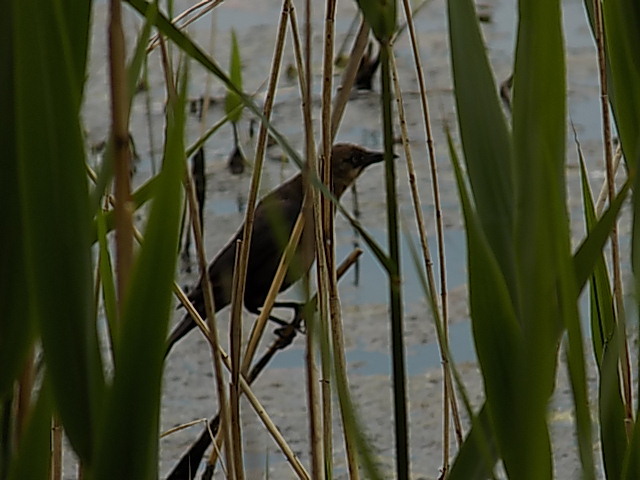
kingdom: Animalia
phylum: Chordata
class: Aves
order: Passeriformes
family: Icteridae
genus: Quiscalus
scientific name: Quiscalus major
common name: Boat-tailed grackle
